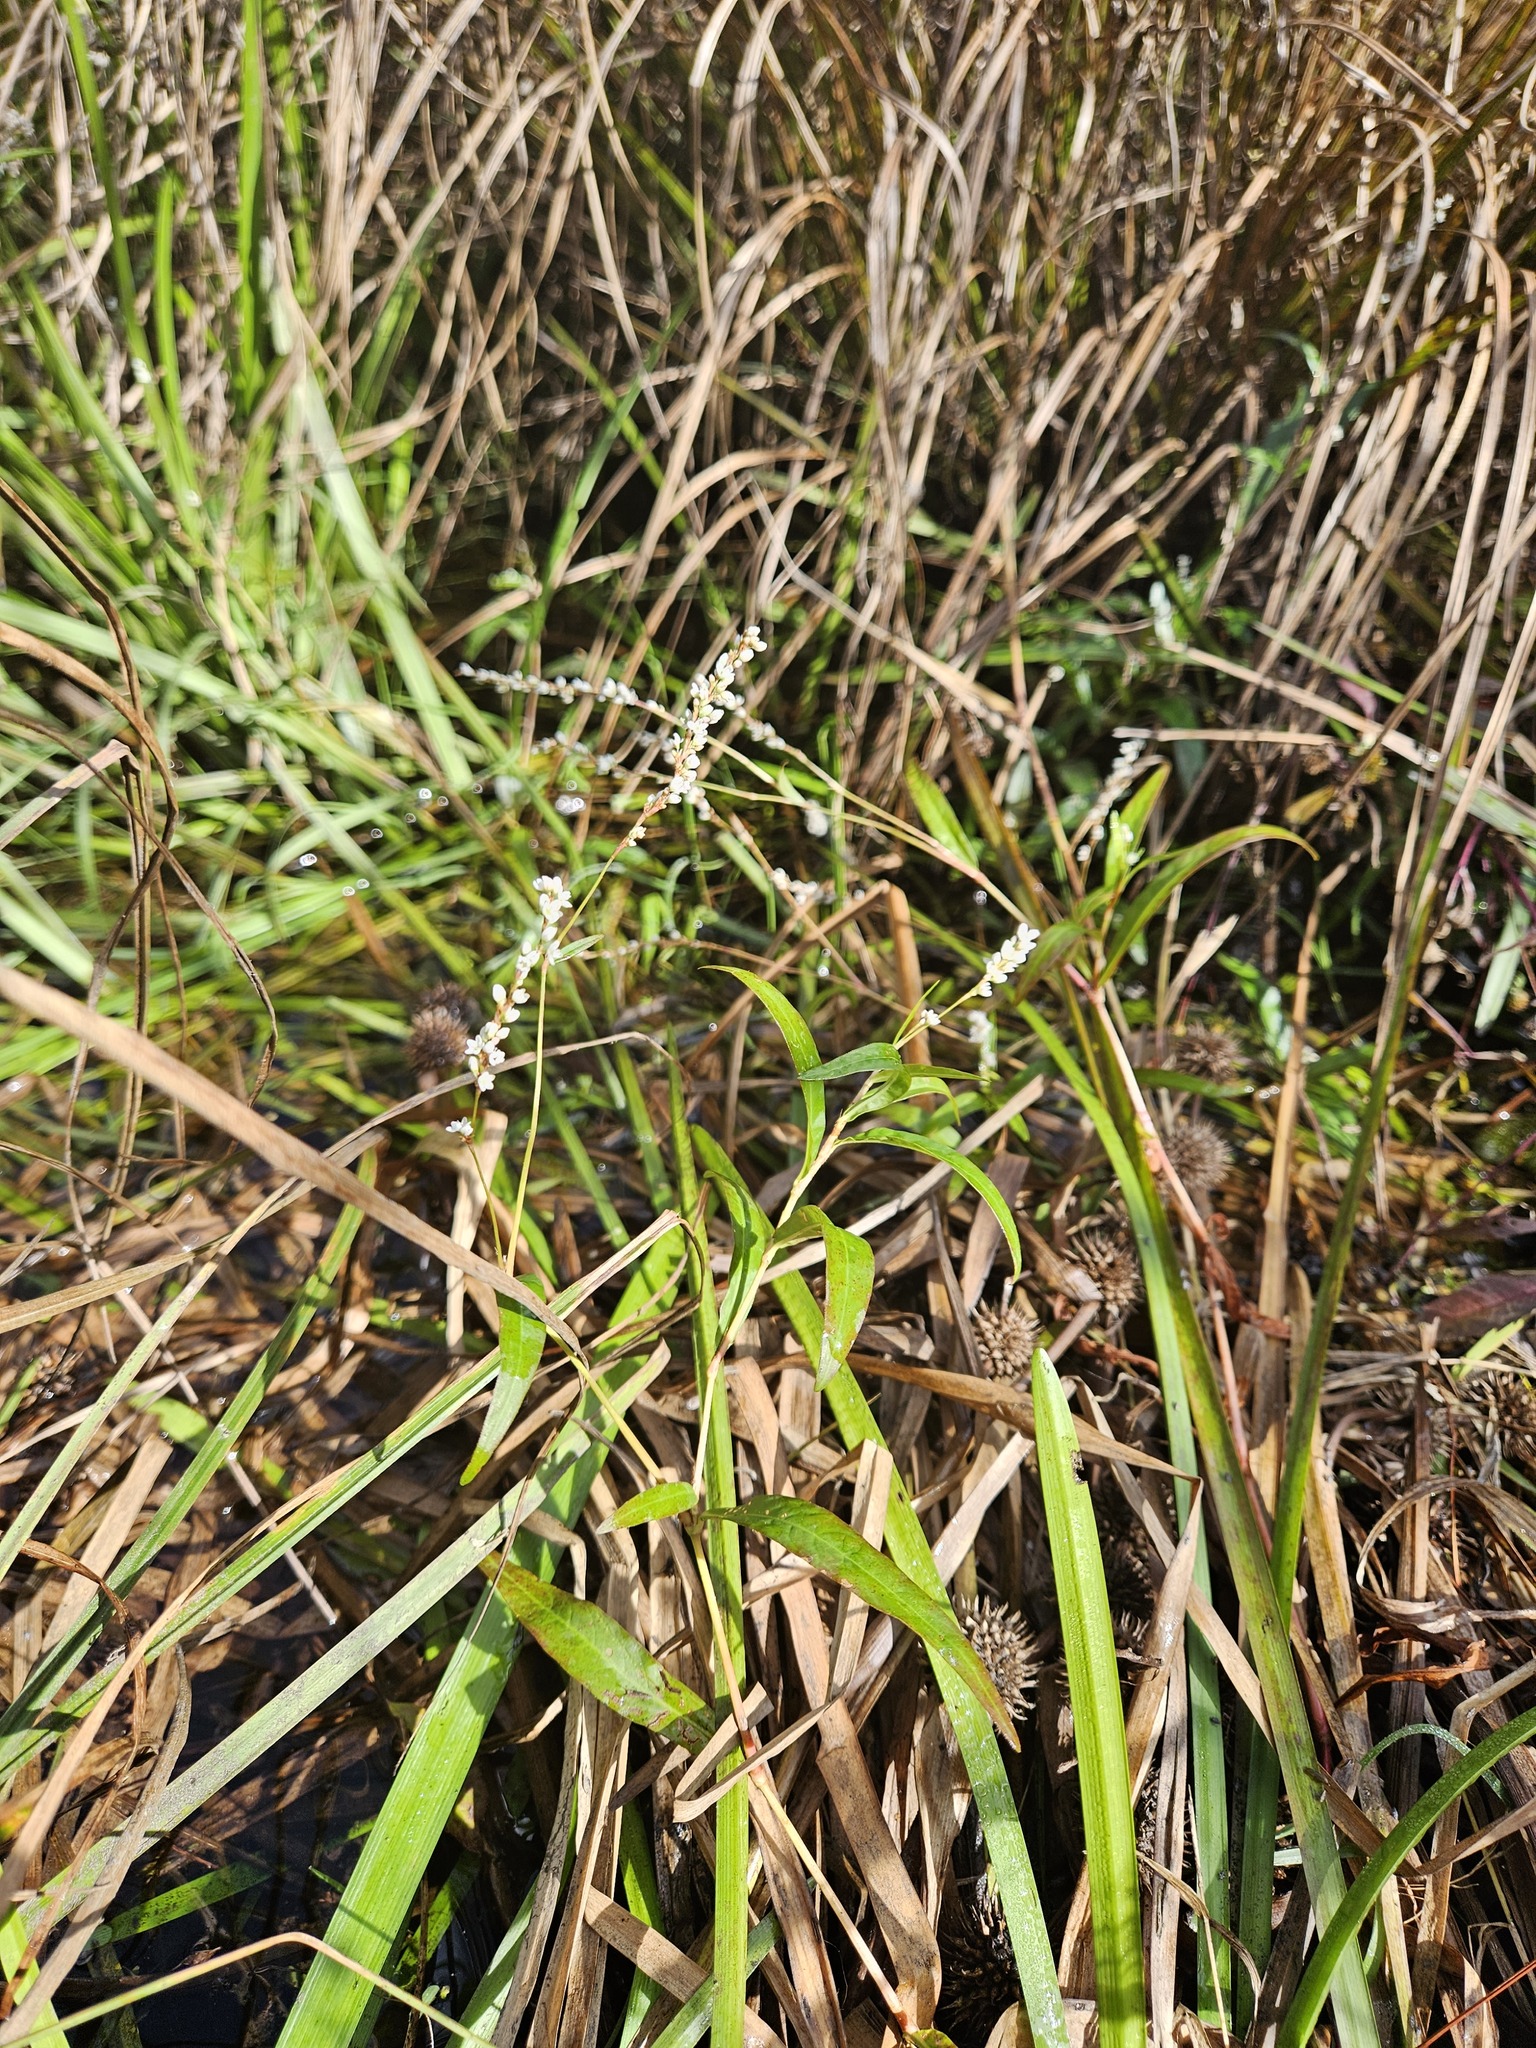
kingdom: Plantae
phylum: Tracheophyta
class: Magnoliopsida
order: Caryophyllales
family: Polygonaceae
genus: Persicaria
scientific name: Persicaria hydropiperoides
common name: Swamp smartweed
